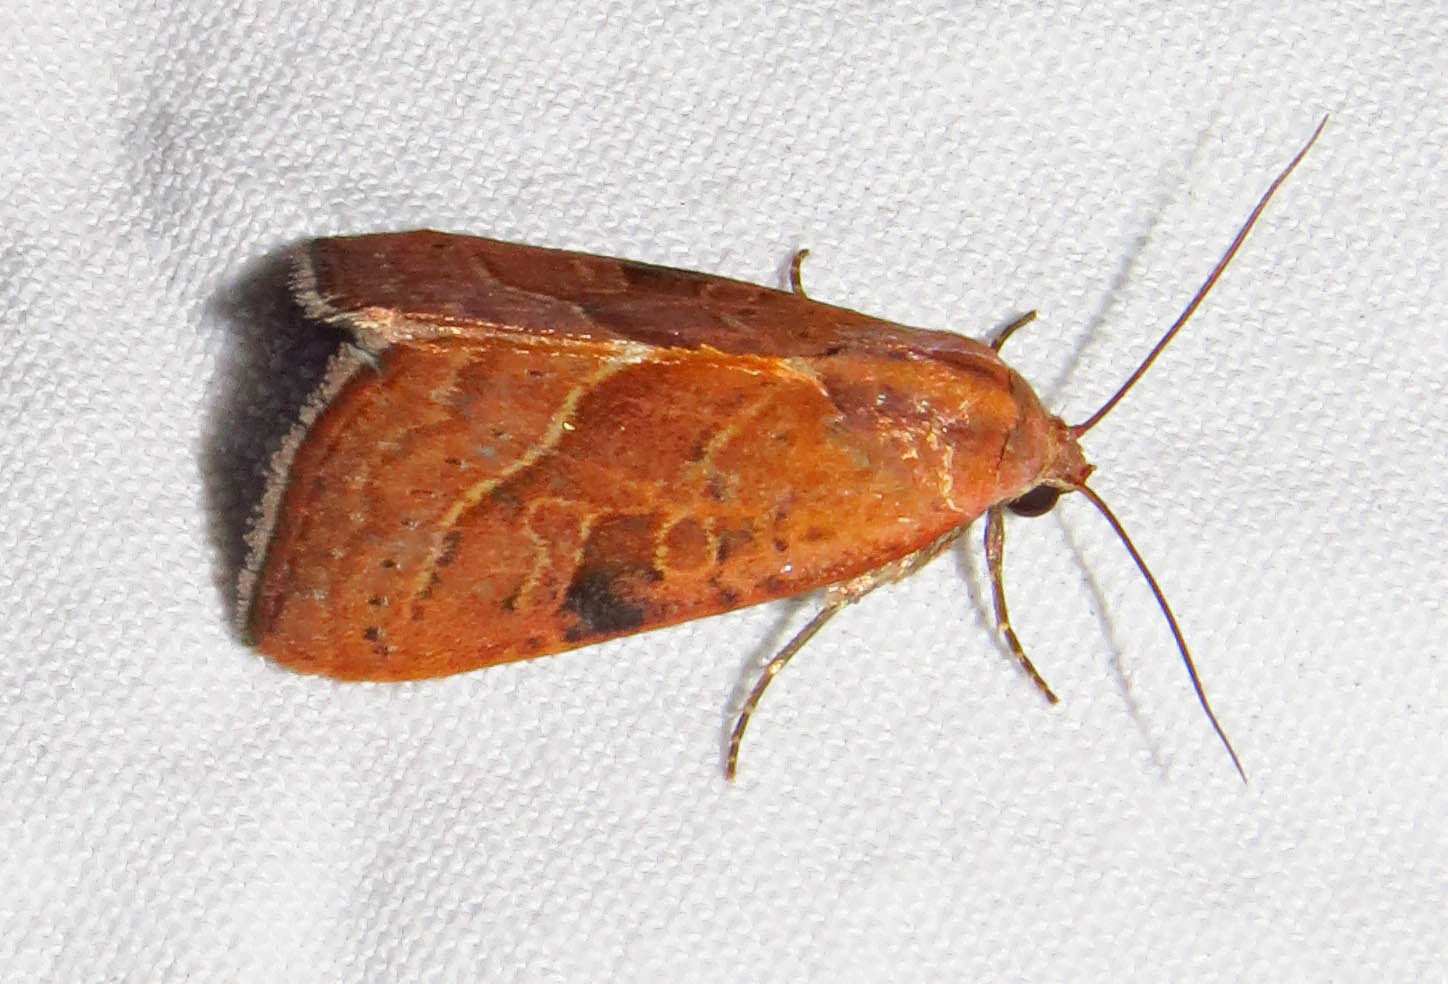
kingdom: Animalia
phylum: Arthropoda
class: Insecta
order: Lepidoptera
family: Noctuidae
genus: Galgula
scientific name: Galgula partita
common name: Wedgeling
